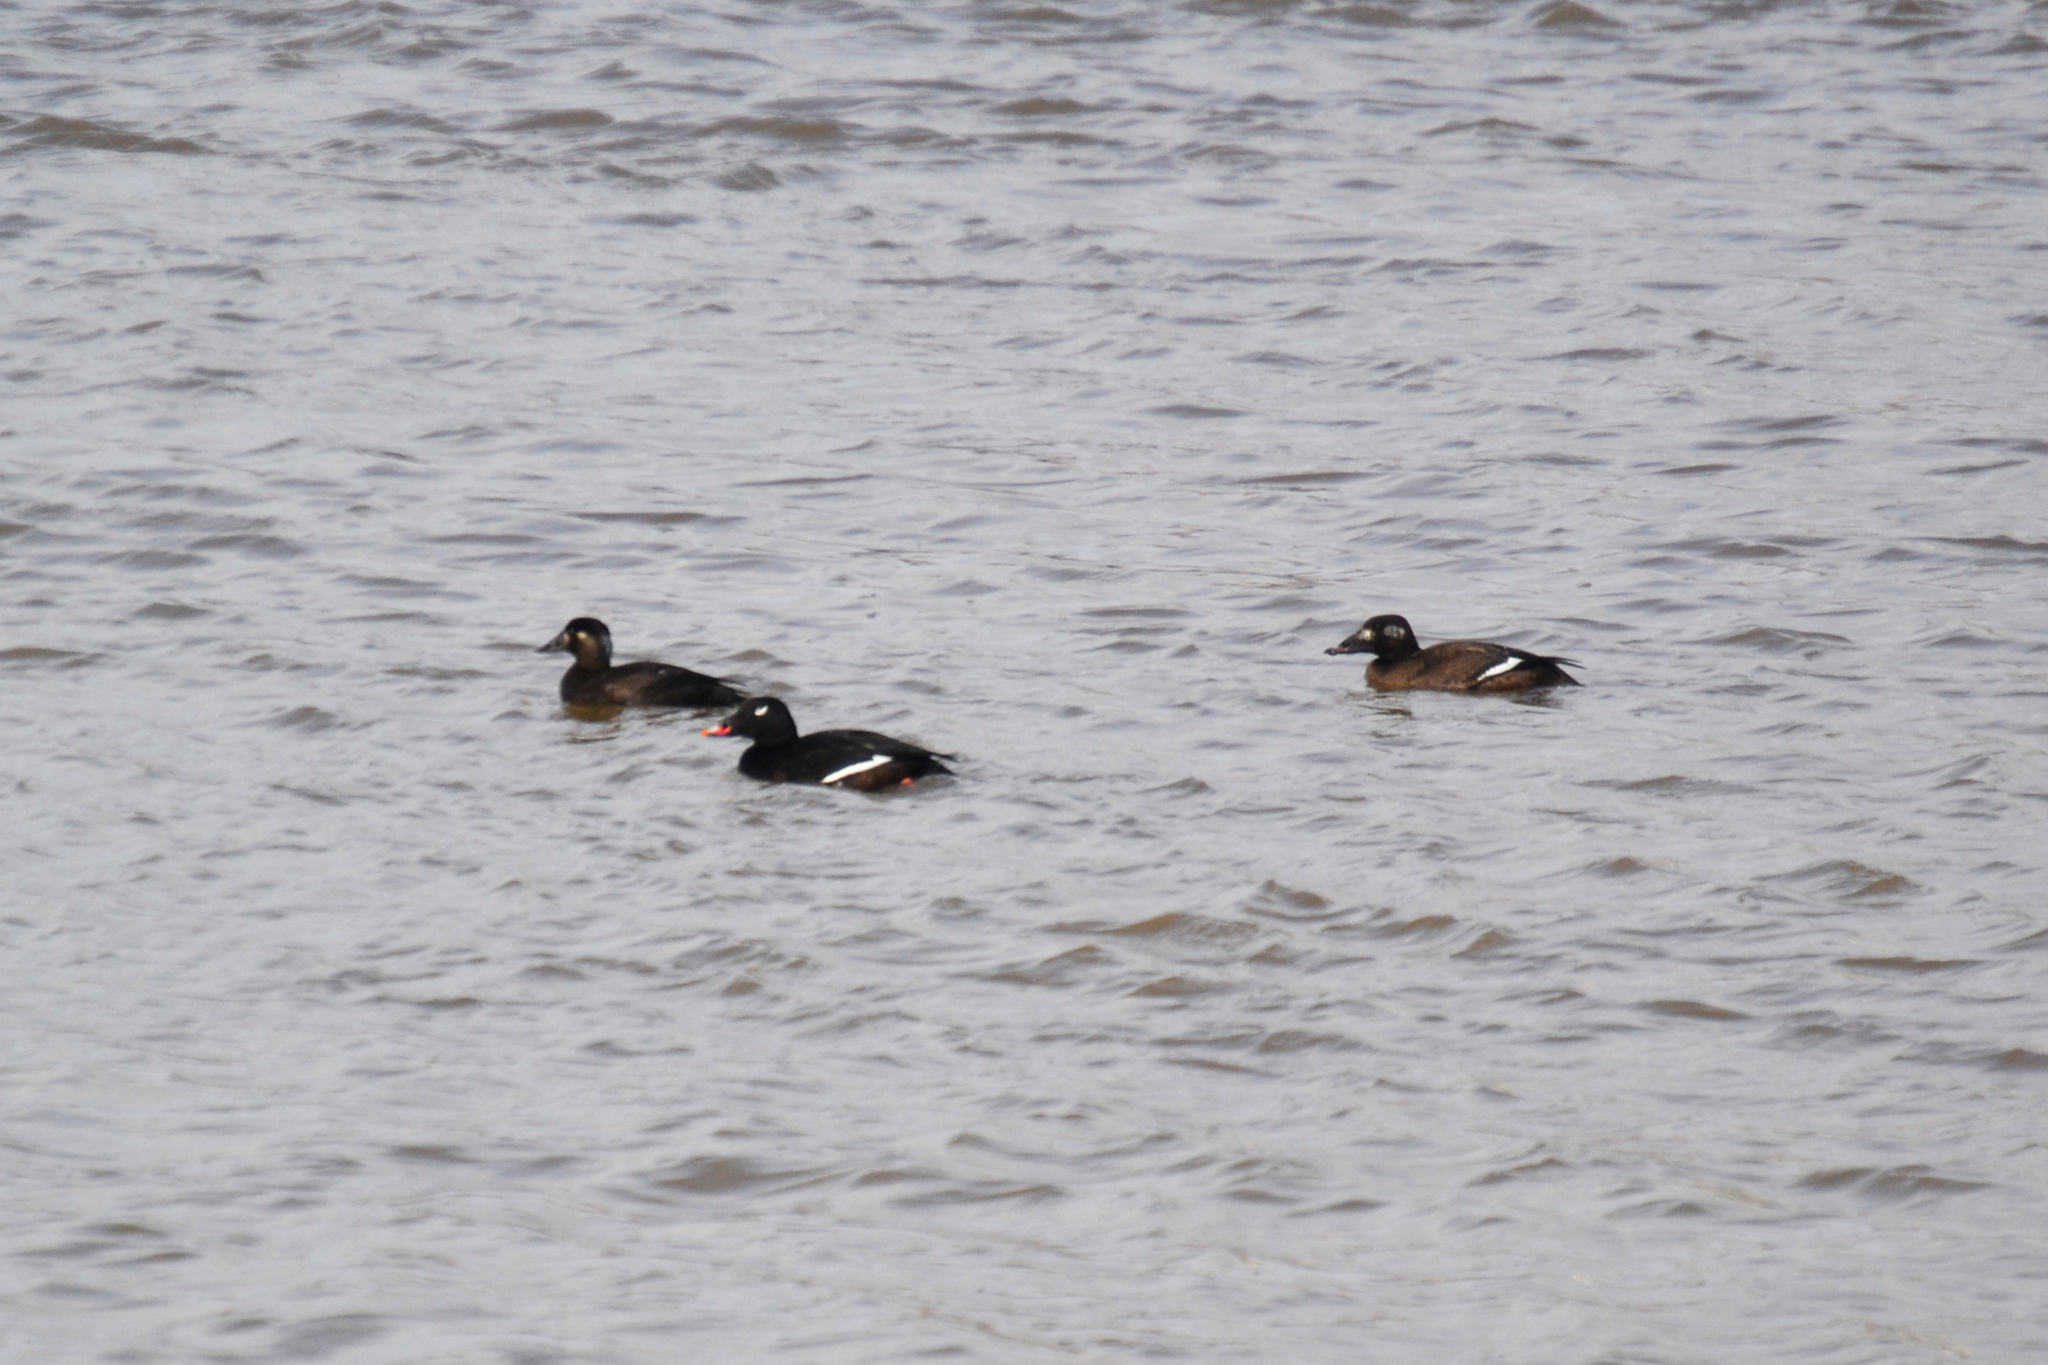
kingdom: Animalia
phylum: Chordata
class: Aves
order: Anseriformes
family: Anatidae
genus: Melanitta
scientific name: Melanitta perspicillata
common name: Surf scoter
